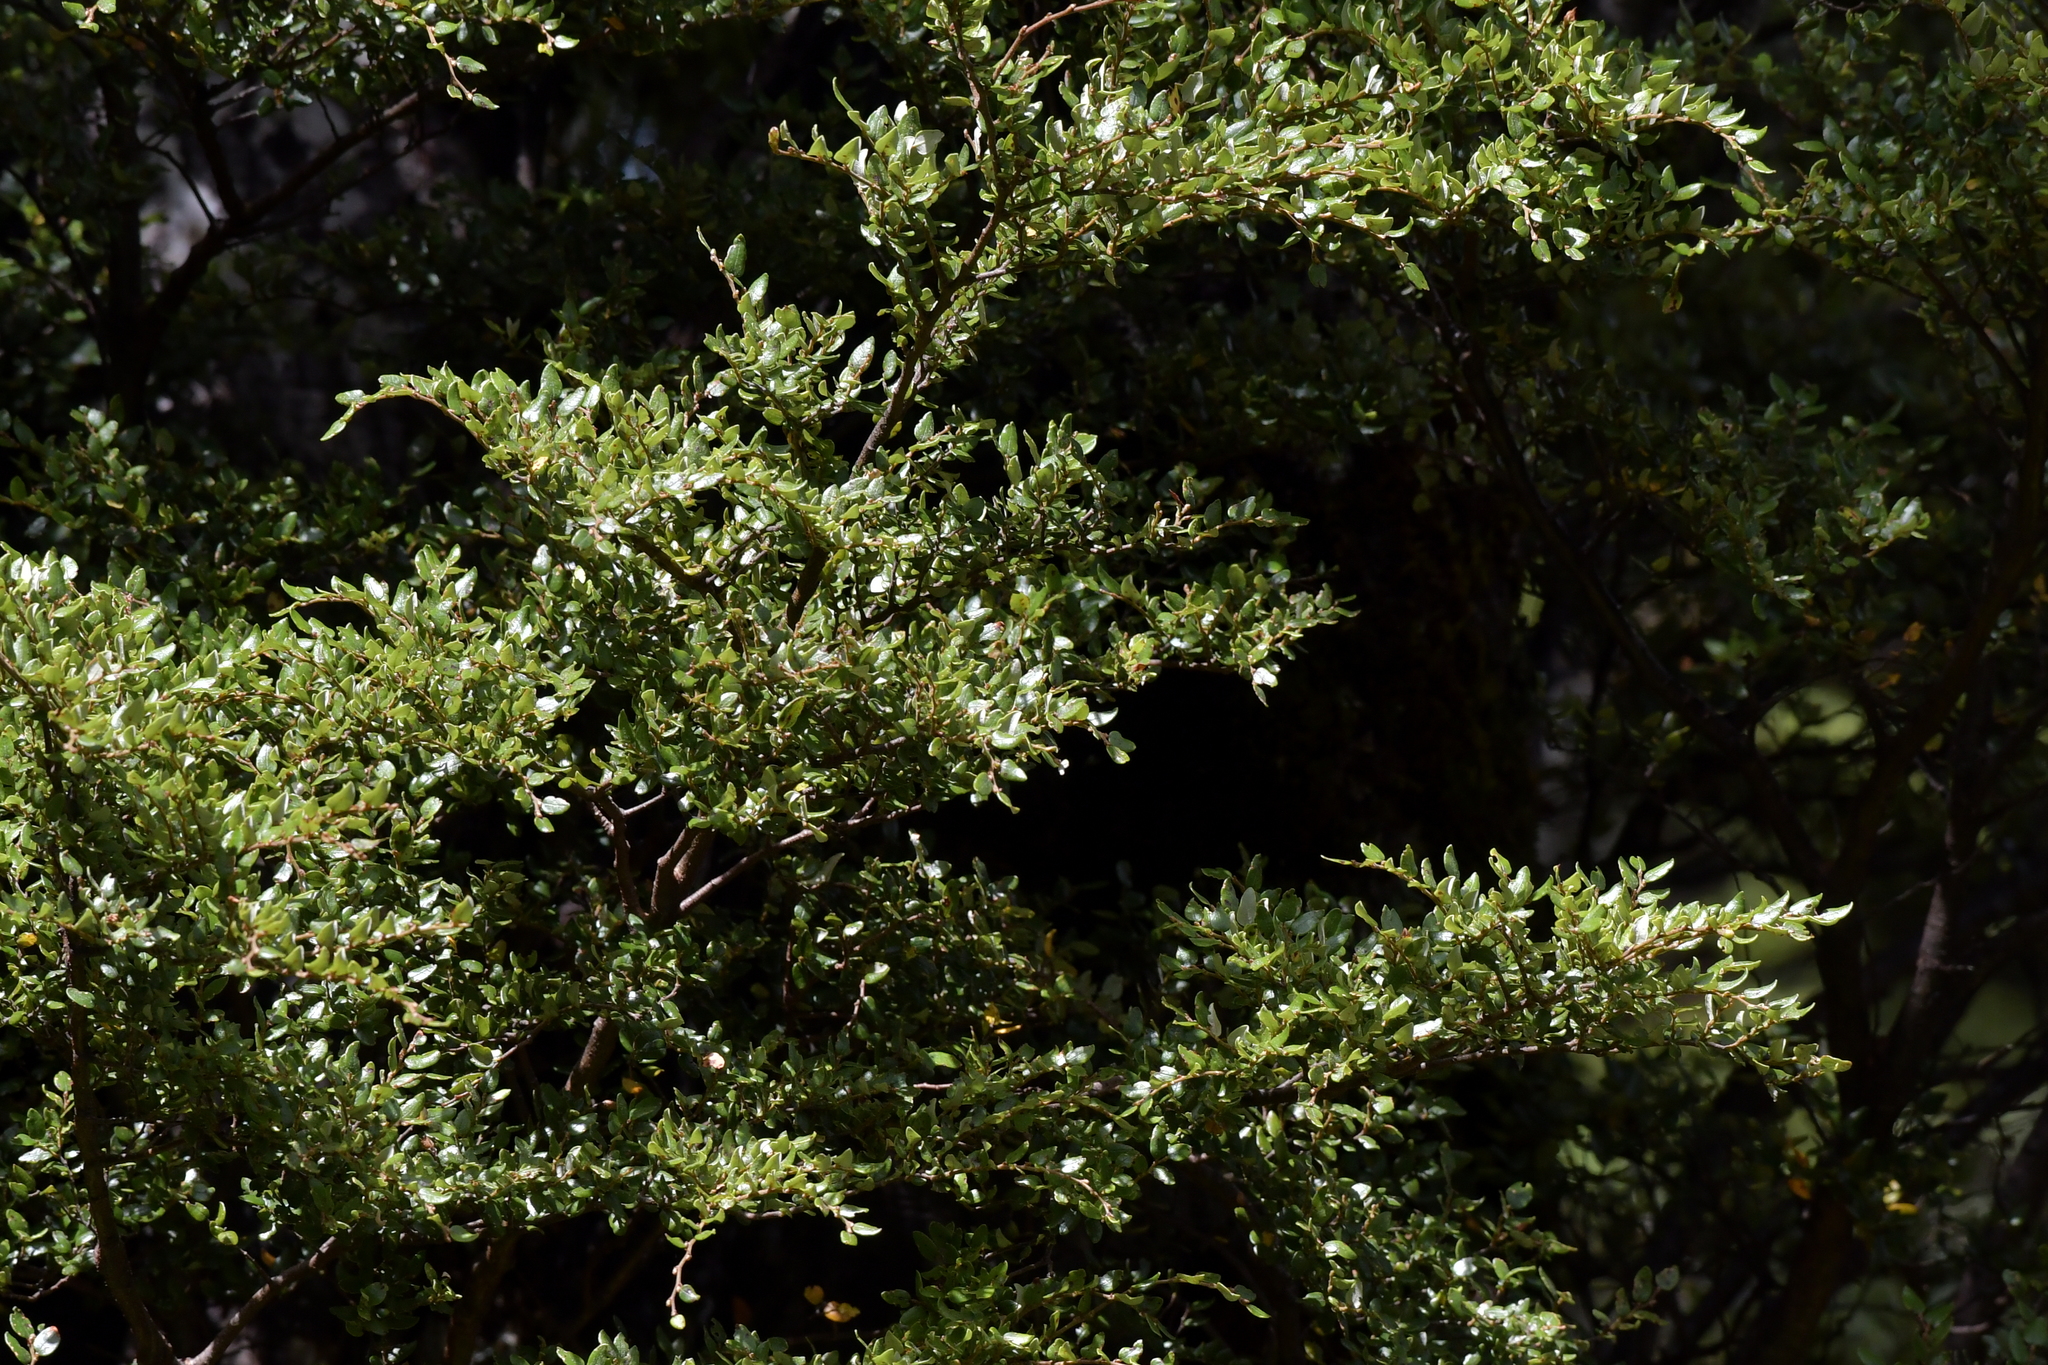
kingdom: Plantae
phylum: Tracheophyta
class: Magnoliopsida
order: Fagales
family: Nothofagaceae
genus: Nothofagus
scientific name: Nothofagus cliffortioides
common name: Mountain beech
